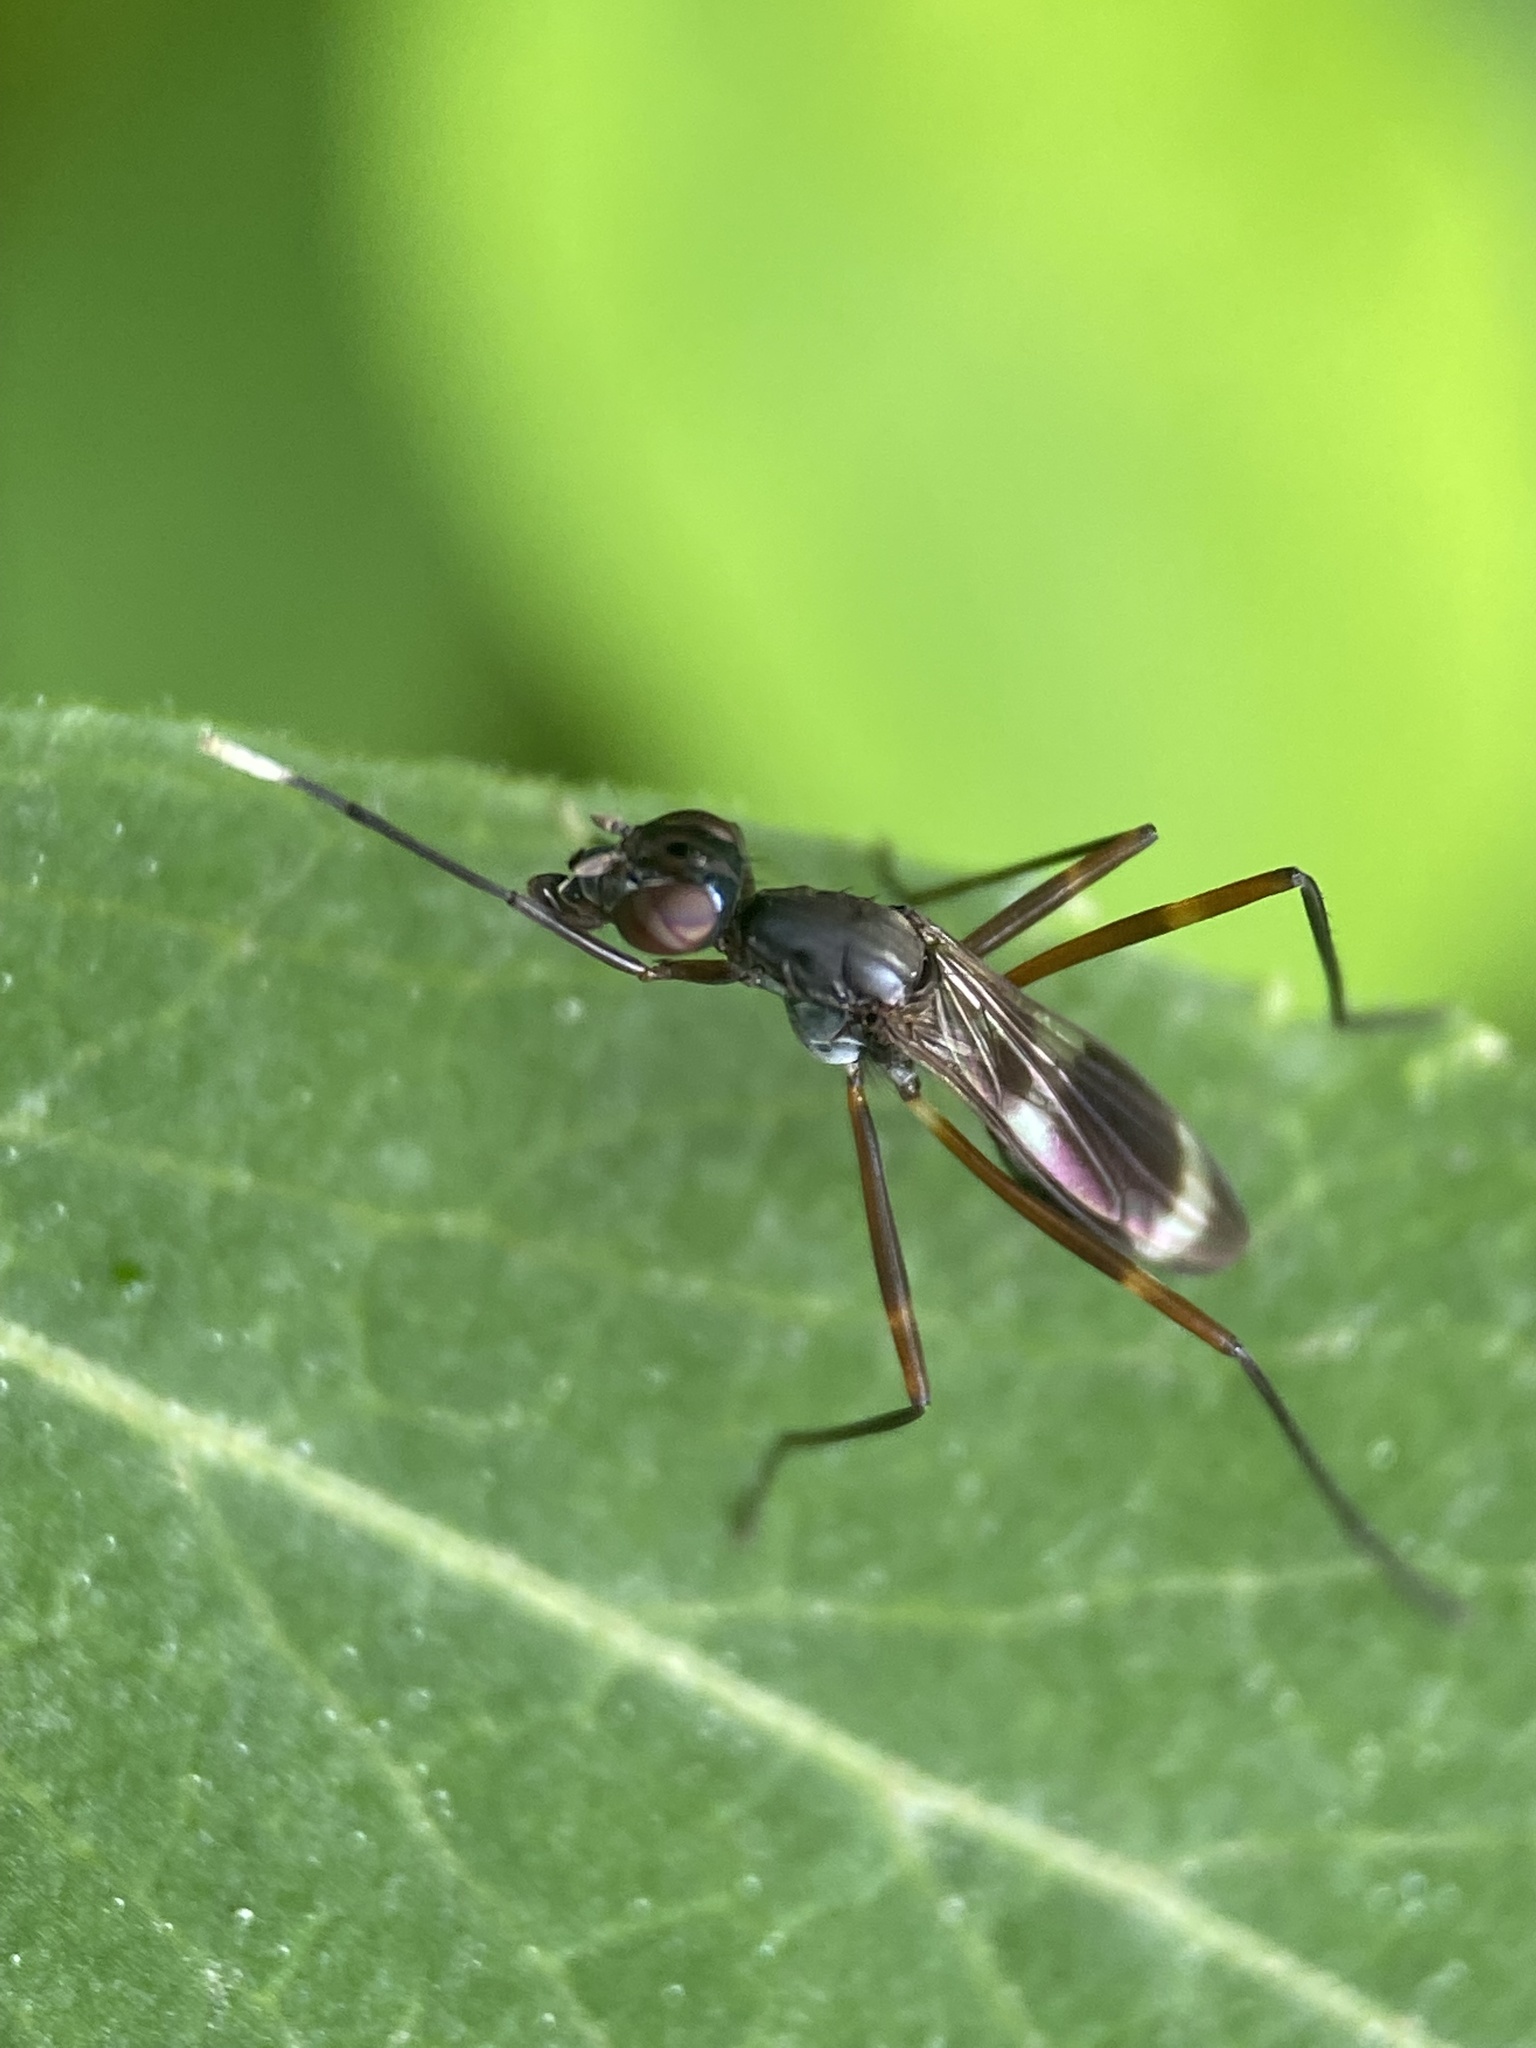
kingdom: Animalia
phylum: Arthropoda
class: Insecta
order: Diptera
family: Micropezidae
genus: Taeniaptera
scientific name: Taeniaptera trivittata
